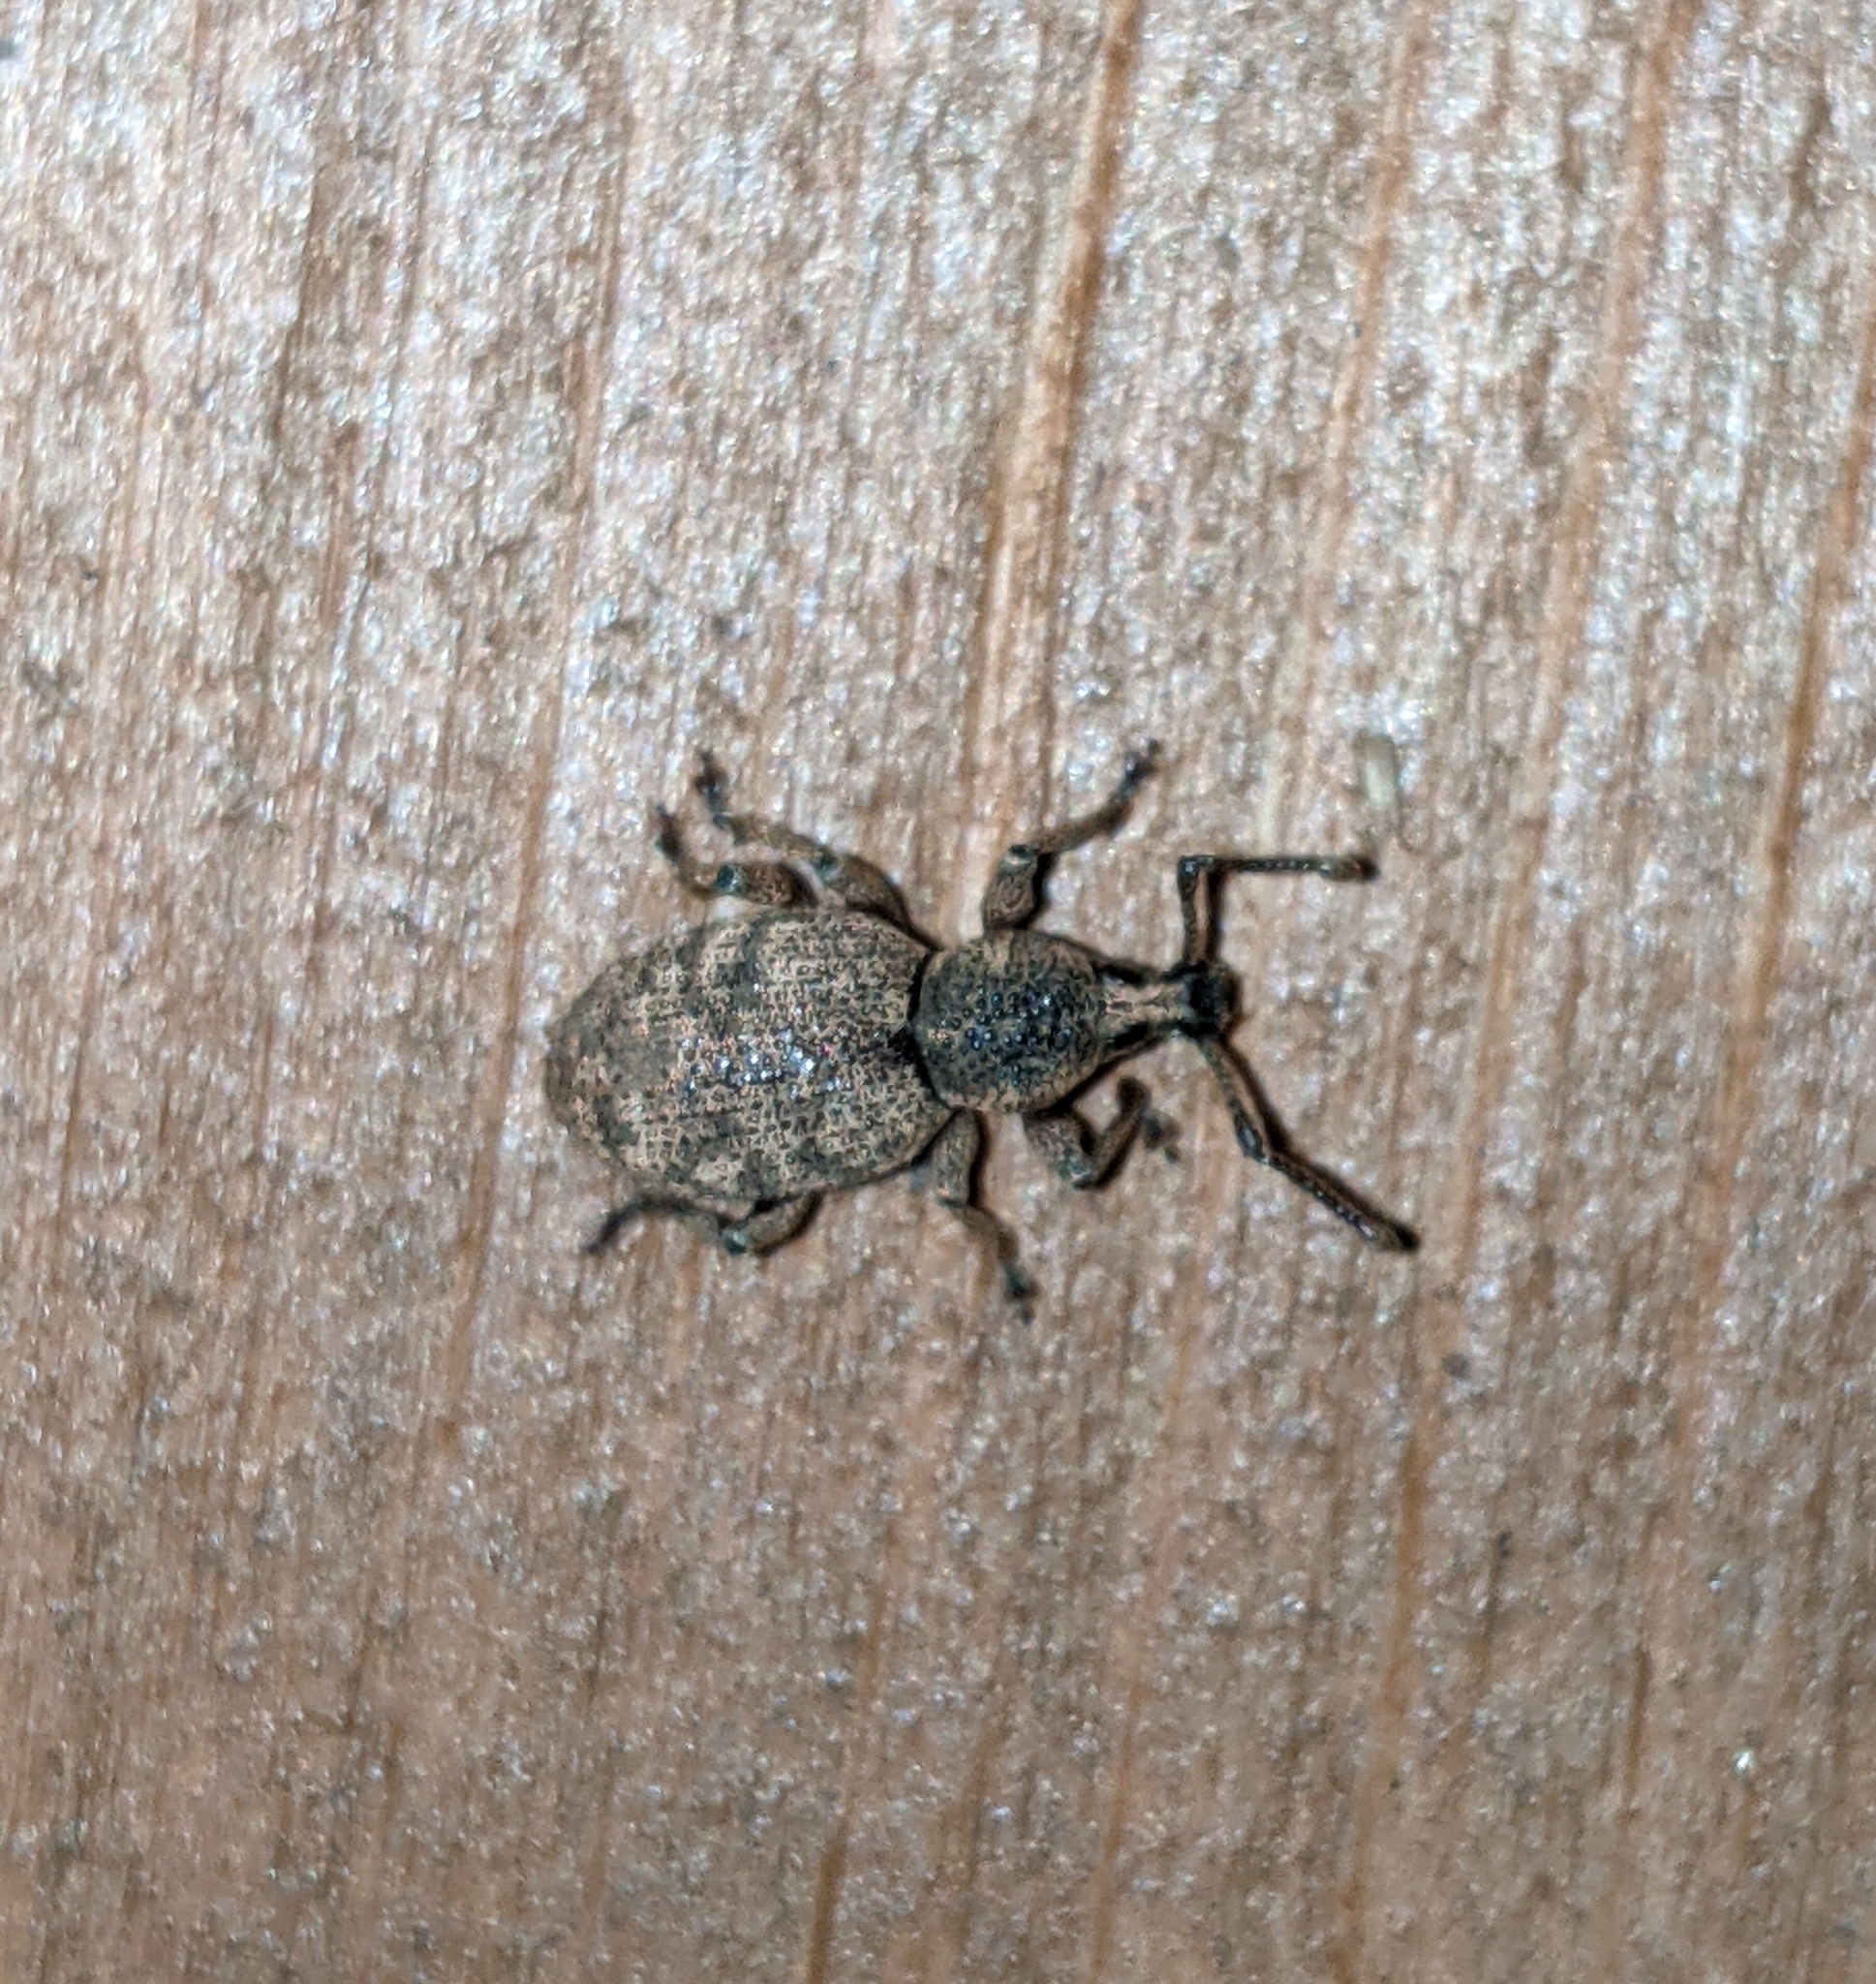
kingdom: Animalia
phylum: Arthropoda
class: Insecta
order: Coleoptera
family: Curculionidae
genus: Otiorhynchus
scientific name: Otiorhynchus singularis
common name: Clay-coloured weevil
